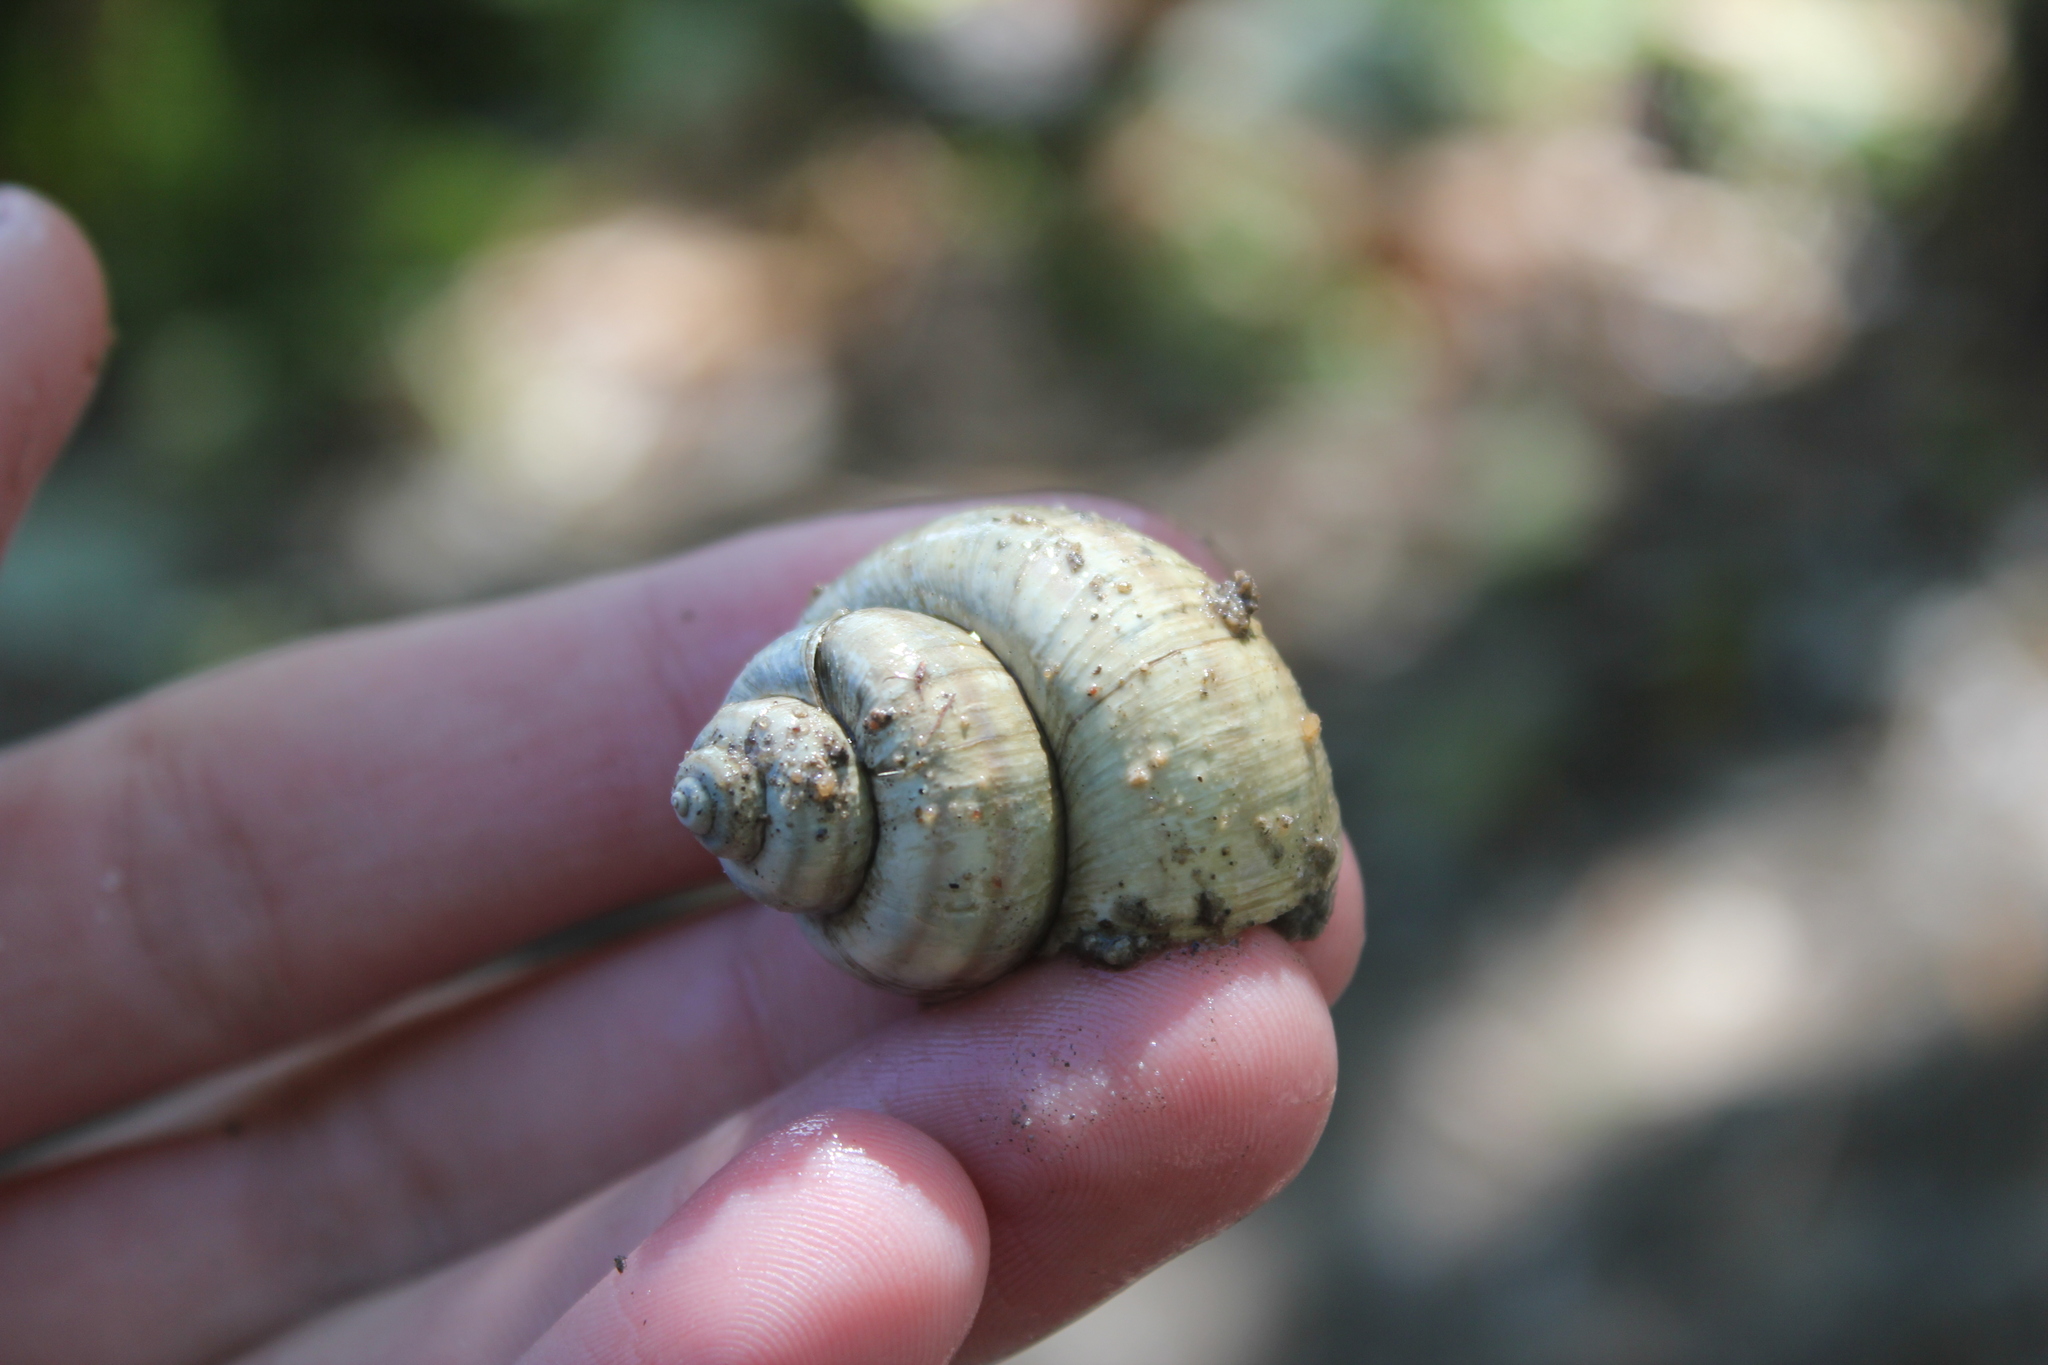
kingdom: Animalia
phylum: Mollusca
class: Gastropoda
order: Architaenioglossa
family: Viviparidae
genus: Callinina
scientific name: Callinina georgiana
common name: Banded mystery snail
